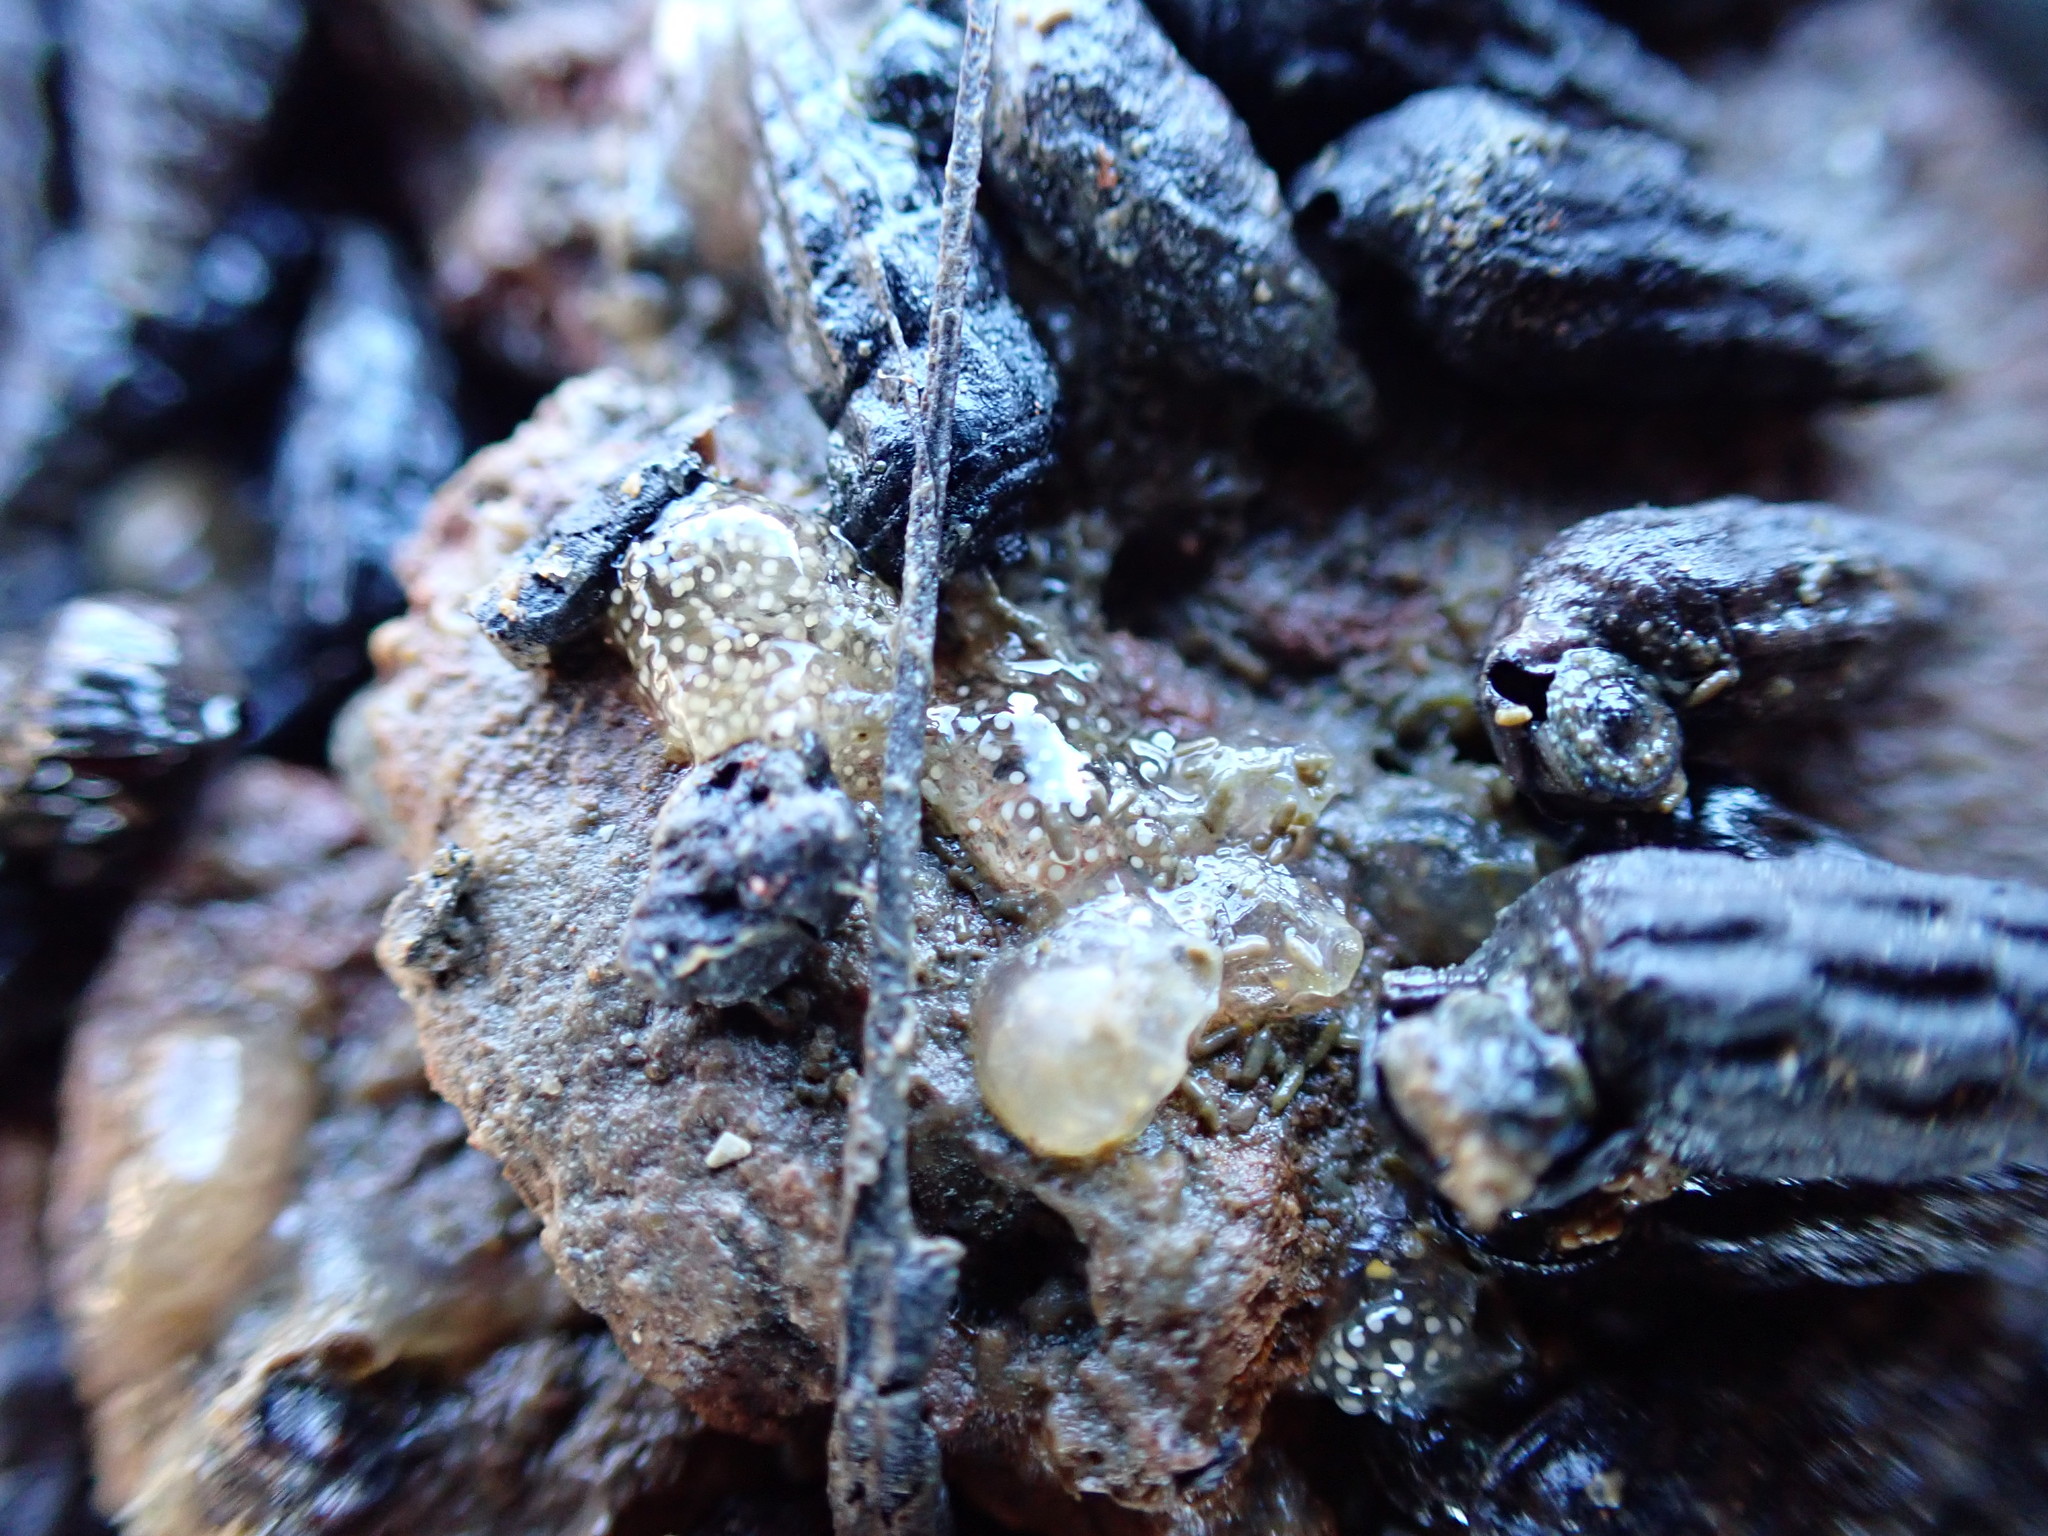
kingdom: Animalia
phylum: Mollusca
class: Gastropoda
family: Batillariidae
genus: Zeacumantus
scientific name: Zeacumantus subcarinatus
